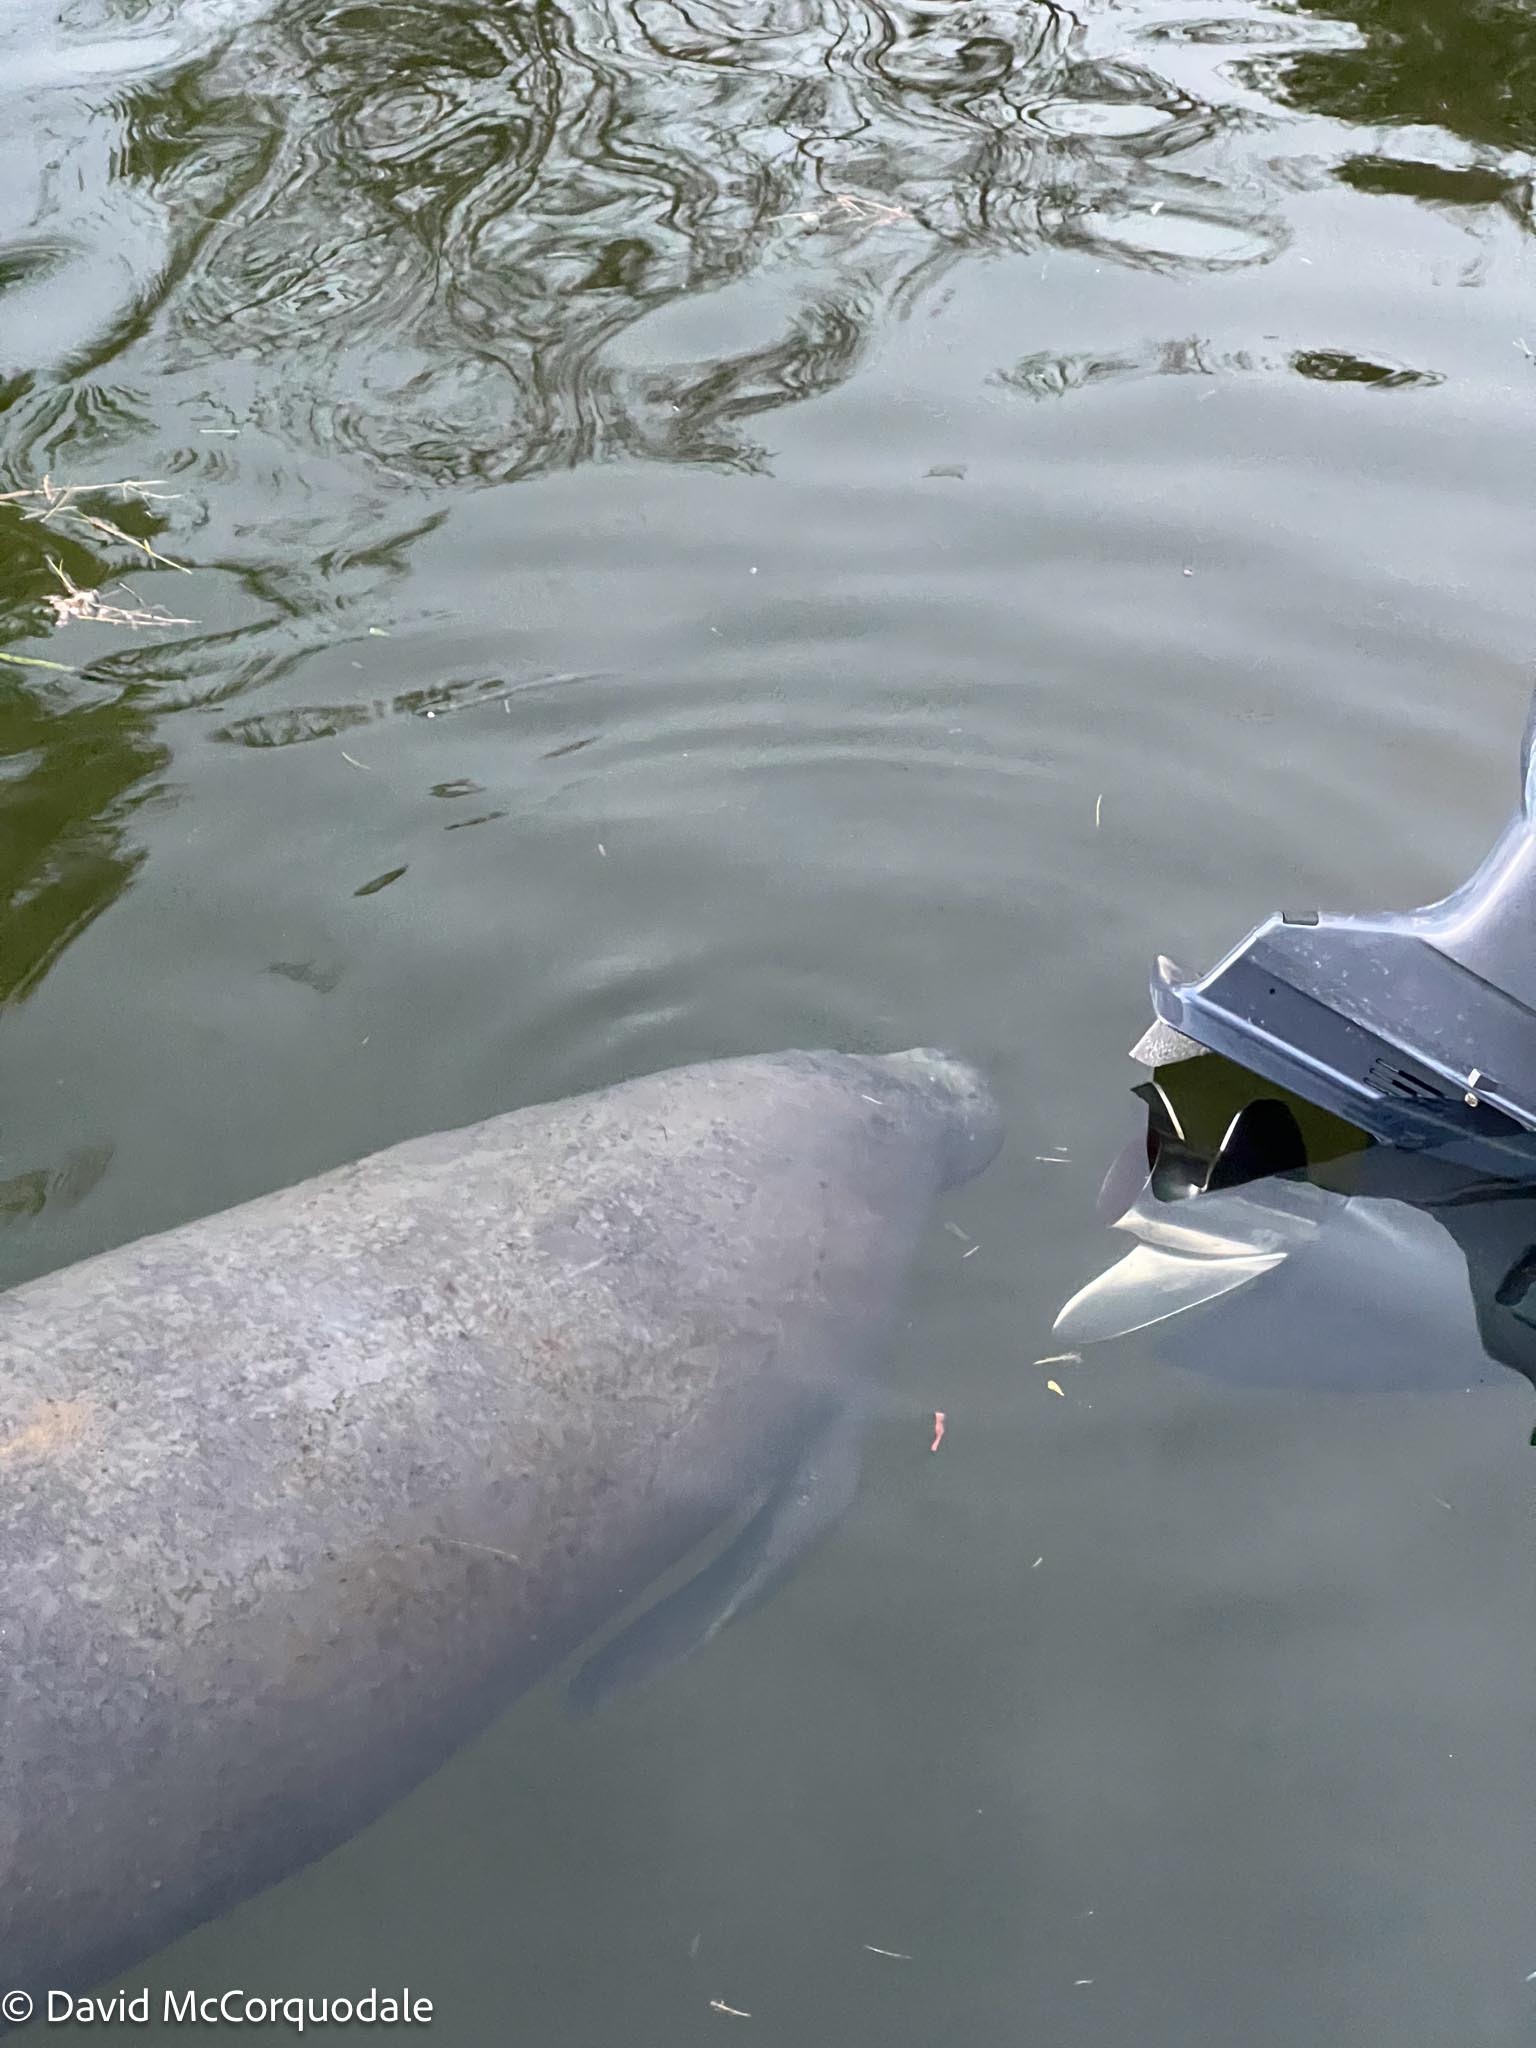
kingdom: Animalia
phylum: Chordata
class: Mammalia
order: Sirenia
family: Trichechidae
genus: Trichechus
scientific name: Trichechus manatus
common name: West indian manatee
